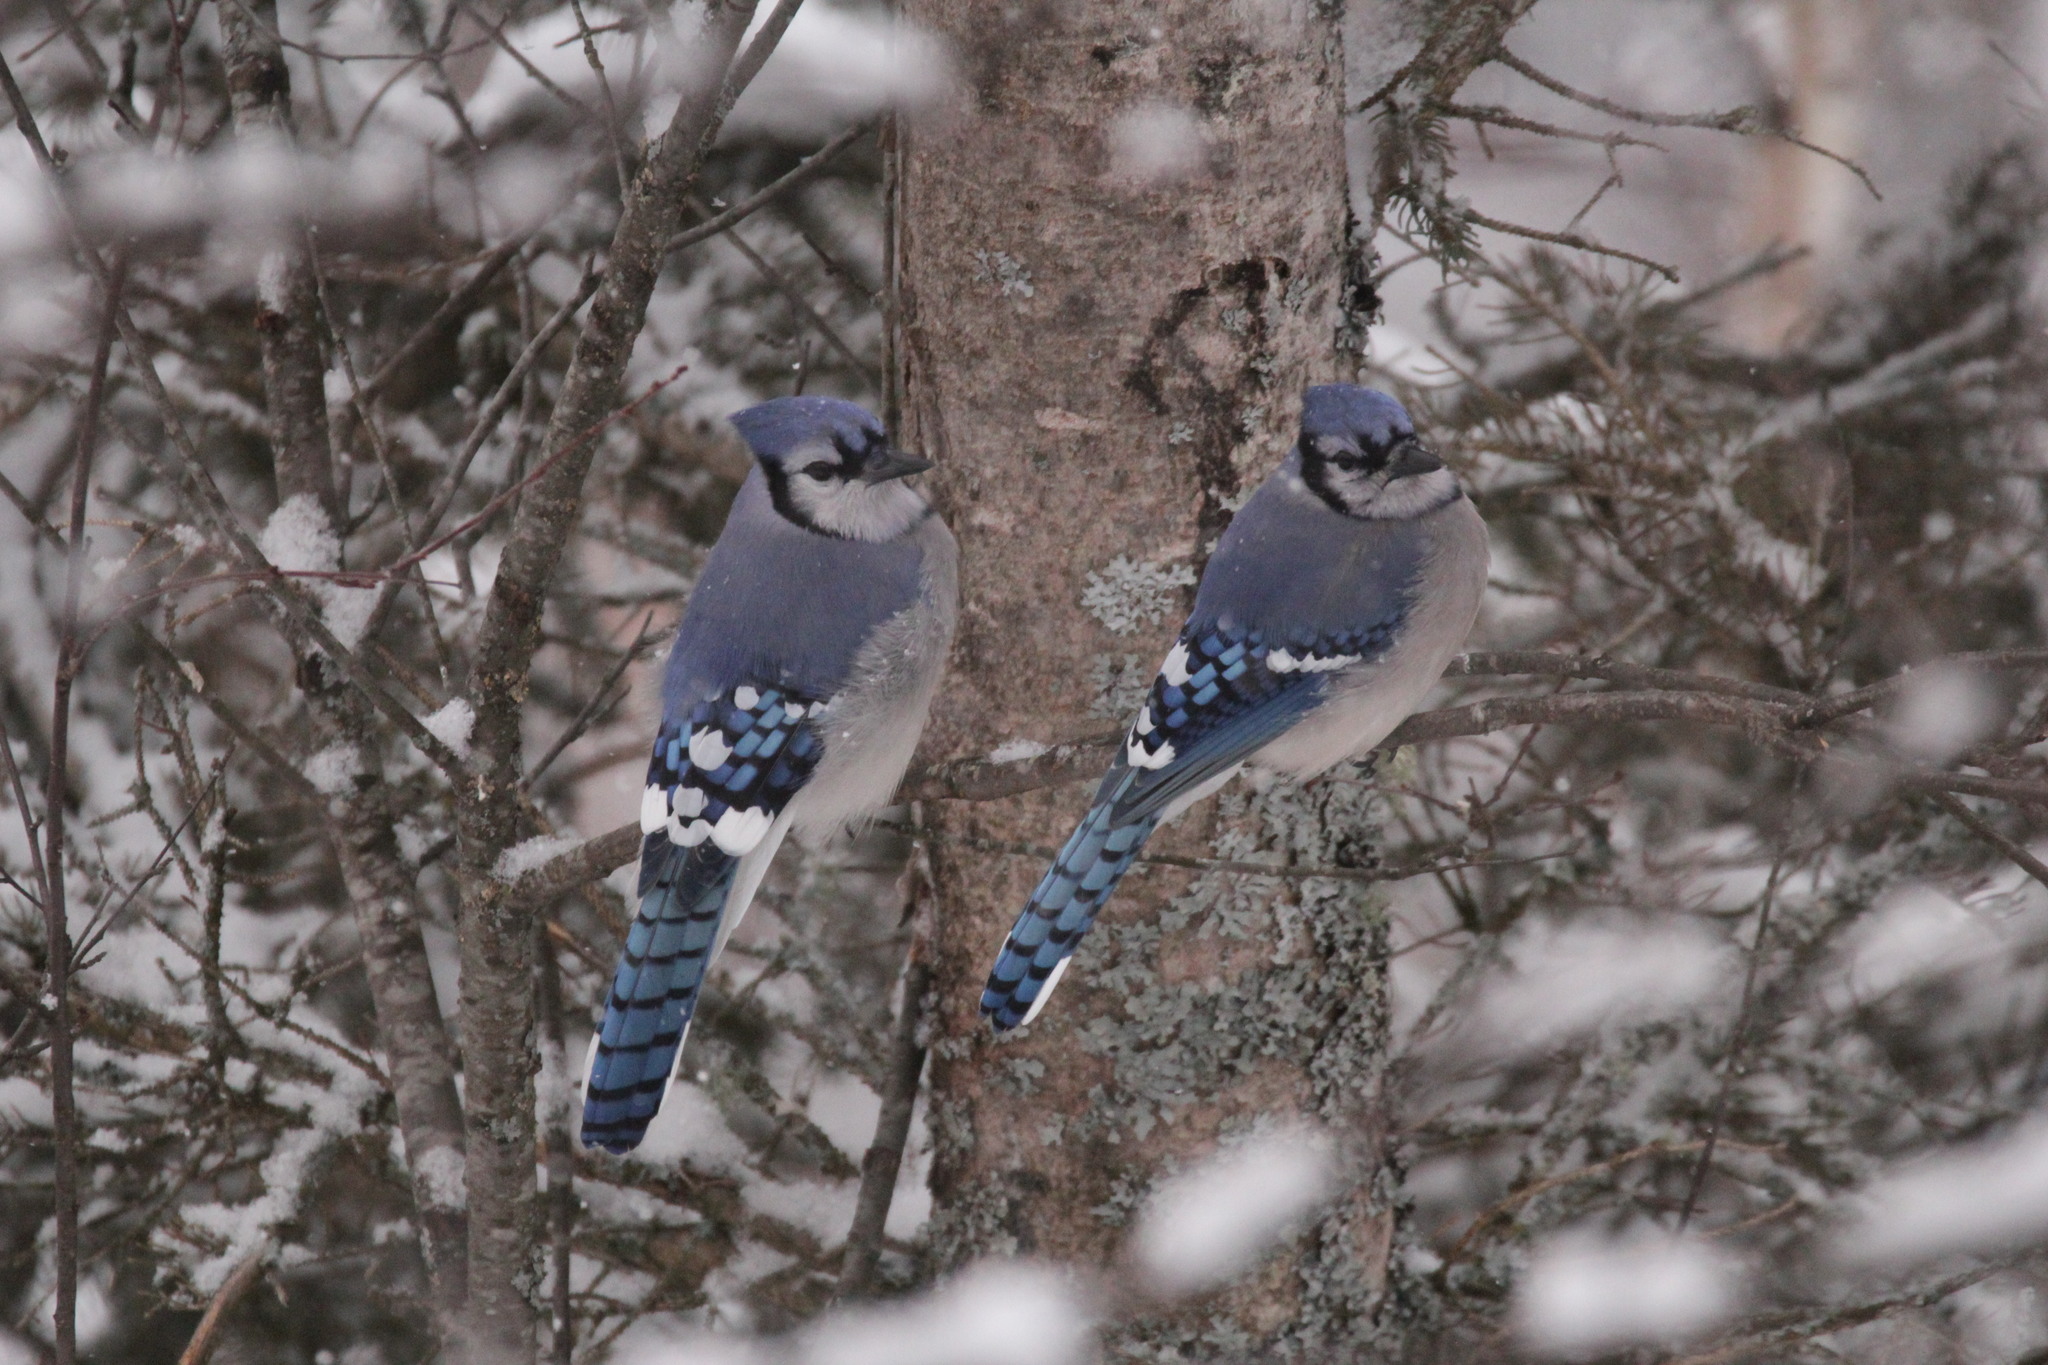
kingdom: Animalia
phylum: Chordata
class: Aves
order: Passeriformes
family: Corvidae
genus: Cyanocitta
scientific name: Cyanocitta cristata
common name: Blue jay
